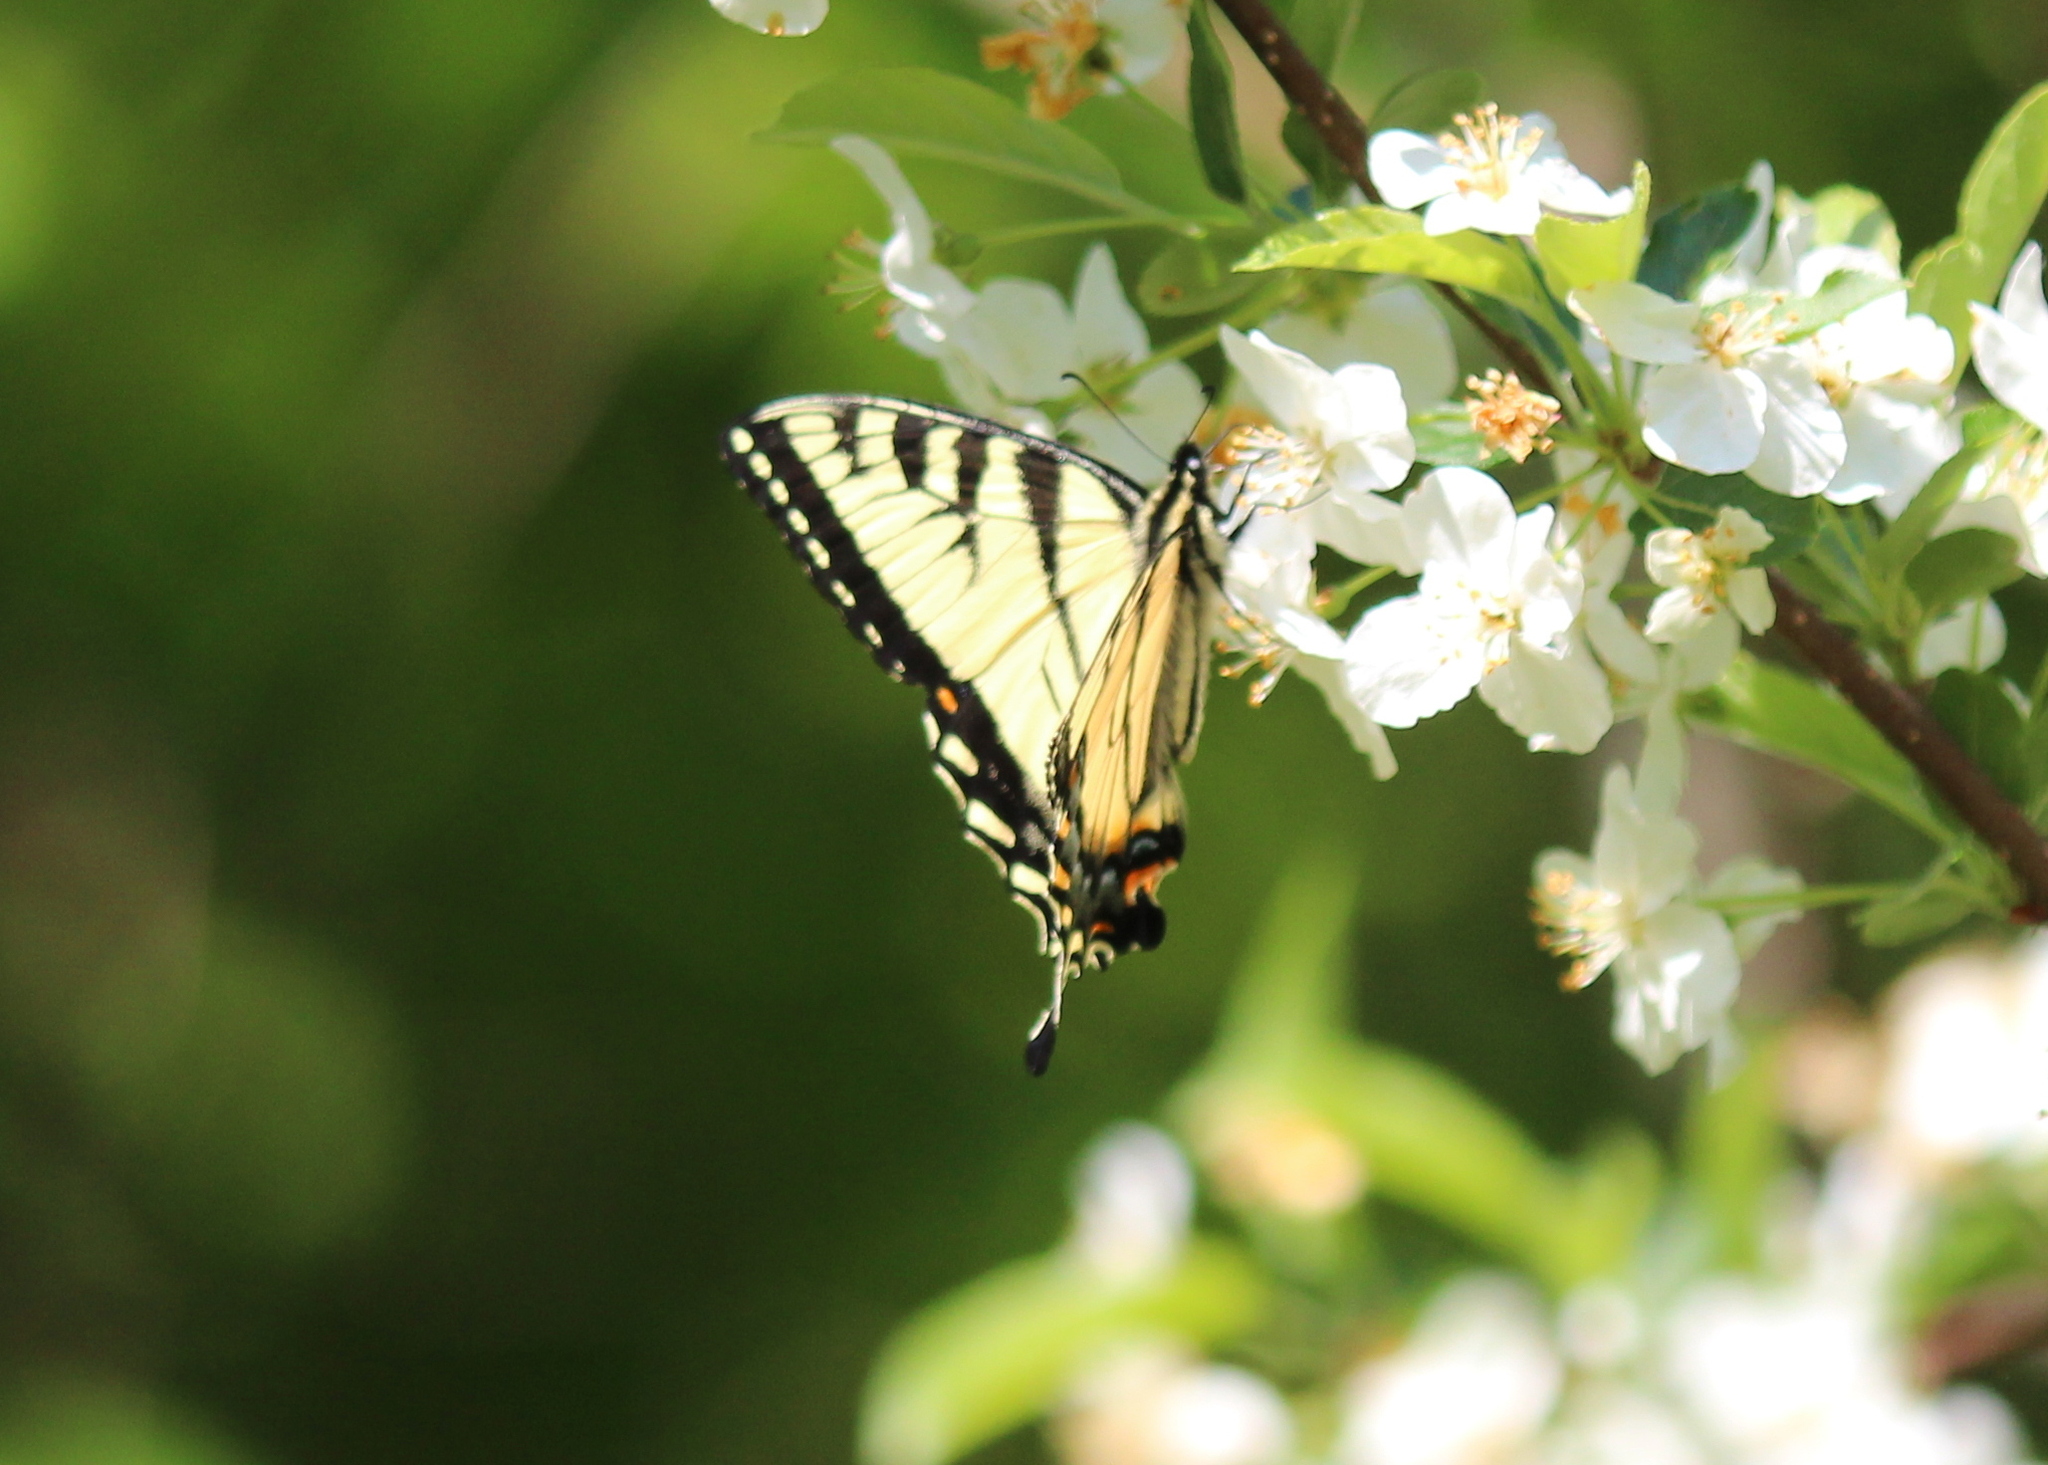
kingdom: Animalia
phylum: Arthropoda
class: Insecta
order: Lepidoptera
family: Papilionidae
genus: Papilio
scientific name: Papilio canadensis
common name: Canadian tiger swallowtail
